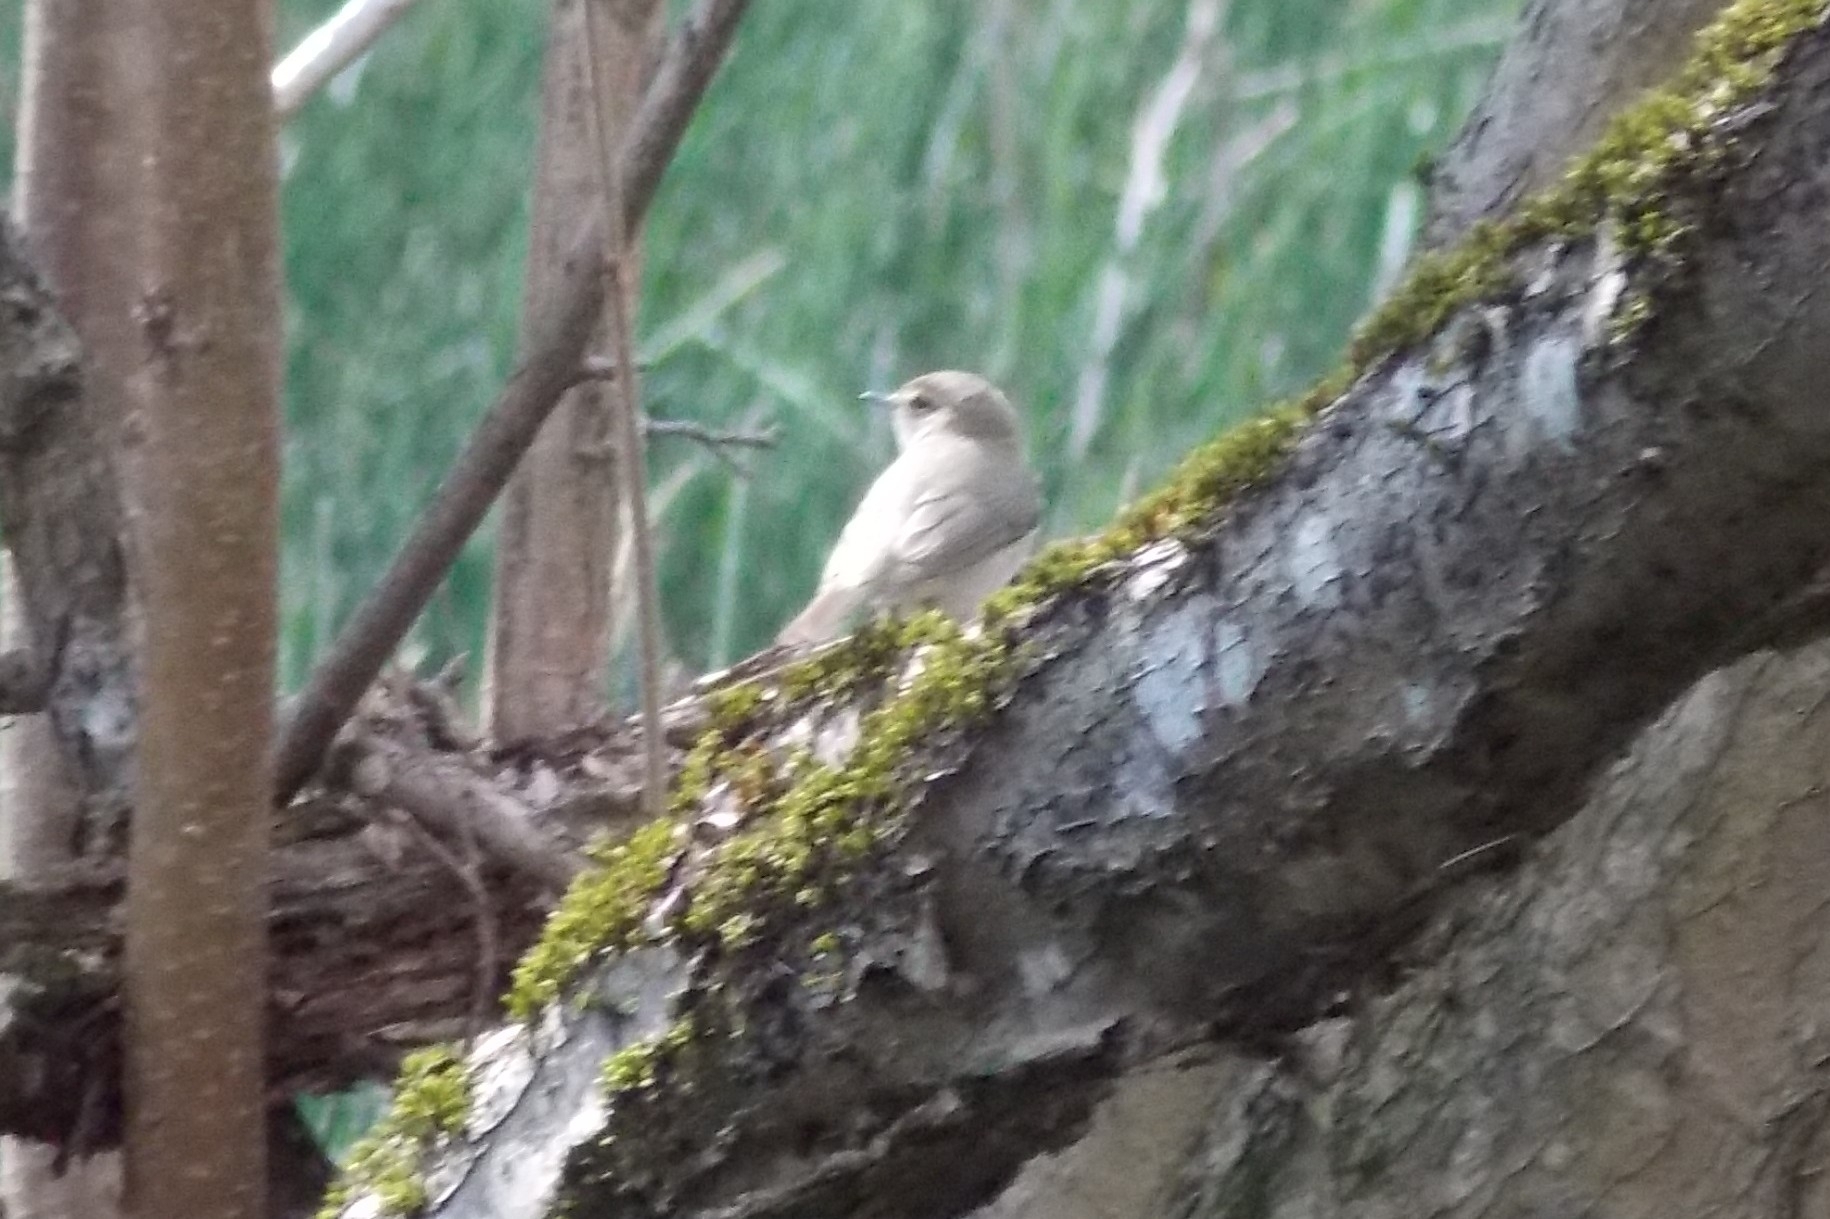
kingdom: Animalia
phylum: Chordata
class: Aves
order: Passeriformes
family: Troglodytidae
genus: Troglodytes
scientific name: Troglodytes troglodytes
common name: Eurasian wren
